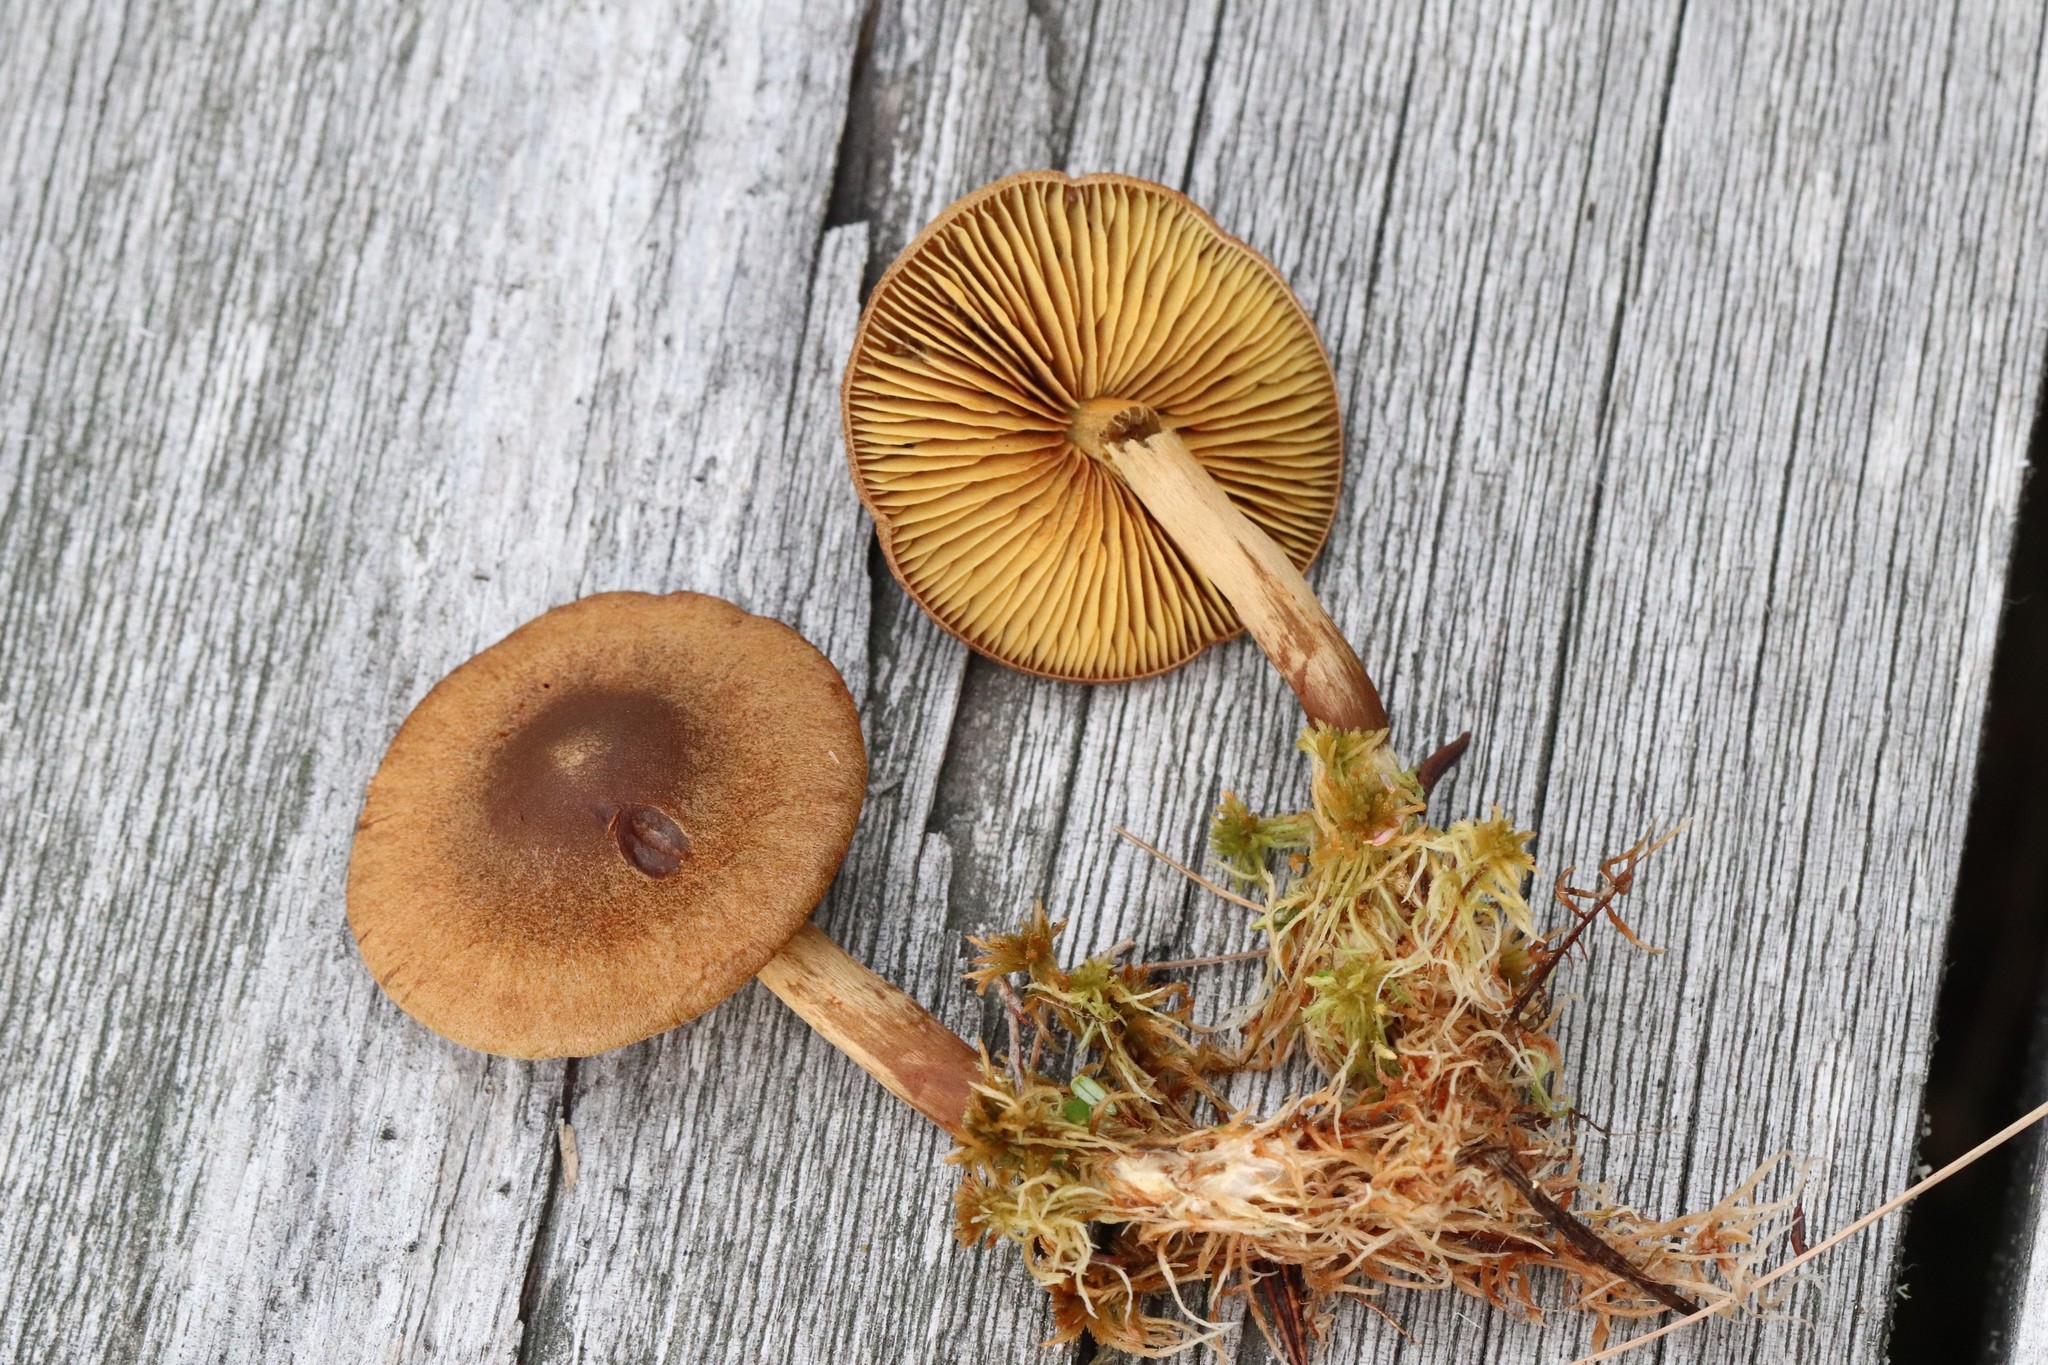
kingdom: Fungi
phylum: Basidiomycota
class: Agaricomycetes
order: Agaricales
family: Cortinariaceae
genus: Cortinarius
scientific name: Cortinarius chrysolitus
